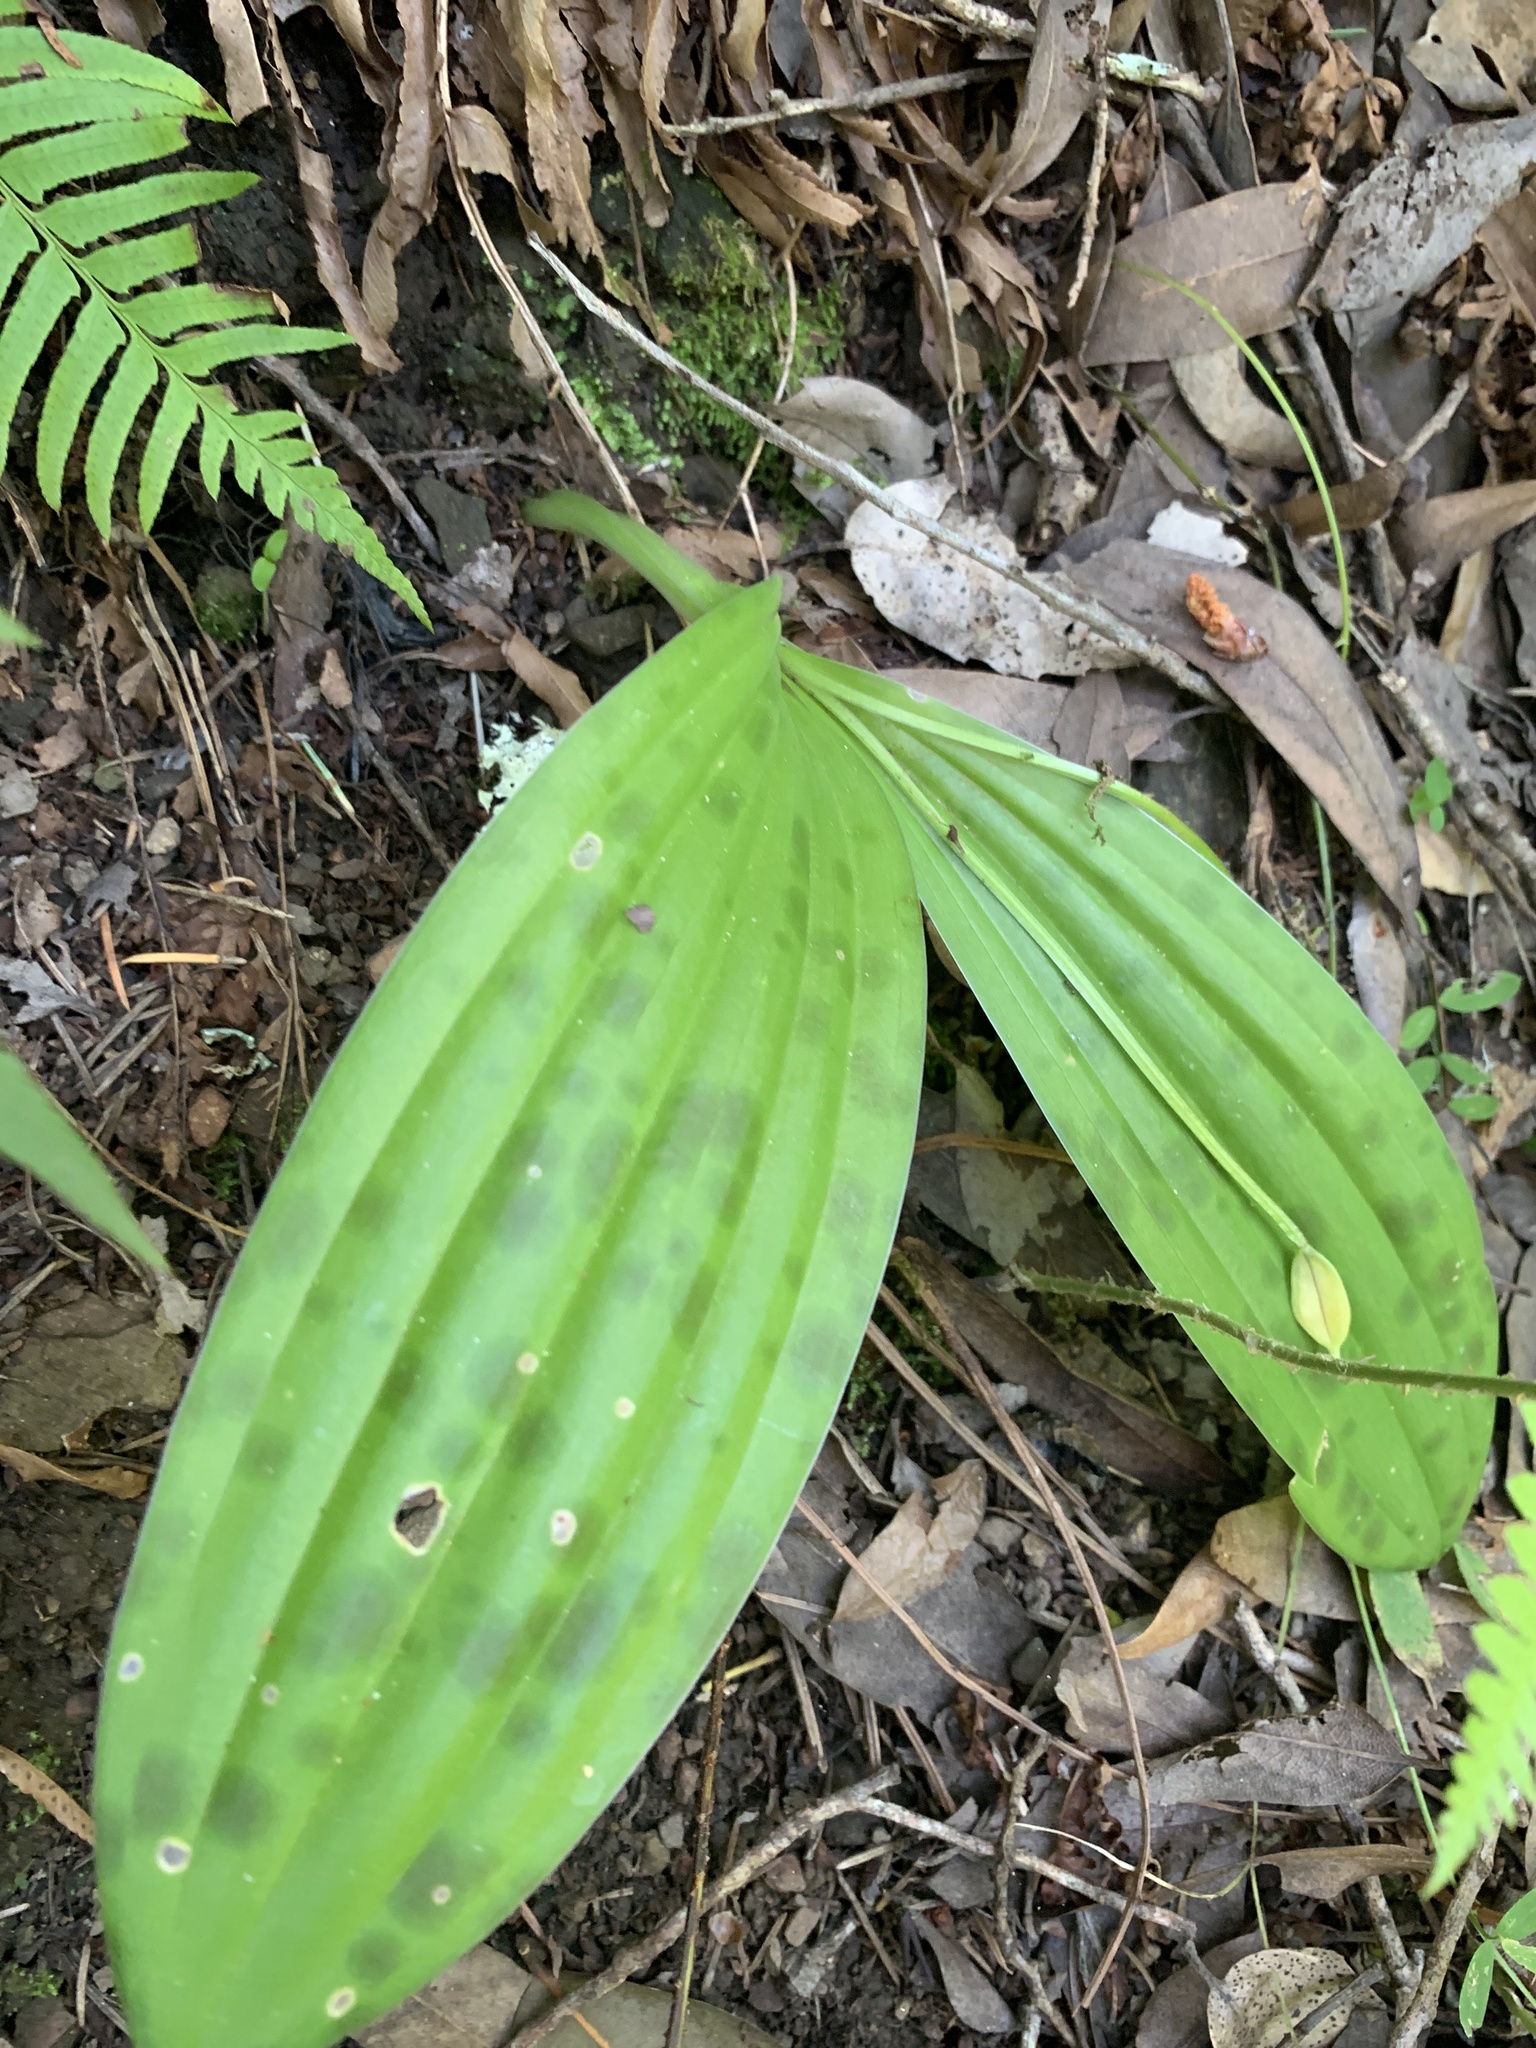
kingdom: Plantae
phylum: Tracheophyta
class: Liliopsida
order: Liliales
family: Liliaceae
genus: Scoliopus
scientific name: Scoliopus bigelovii
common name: Foetid adder's-tongue
